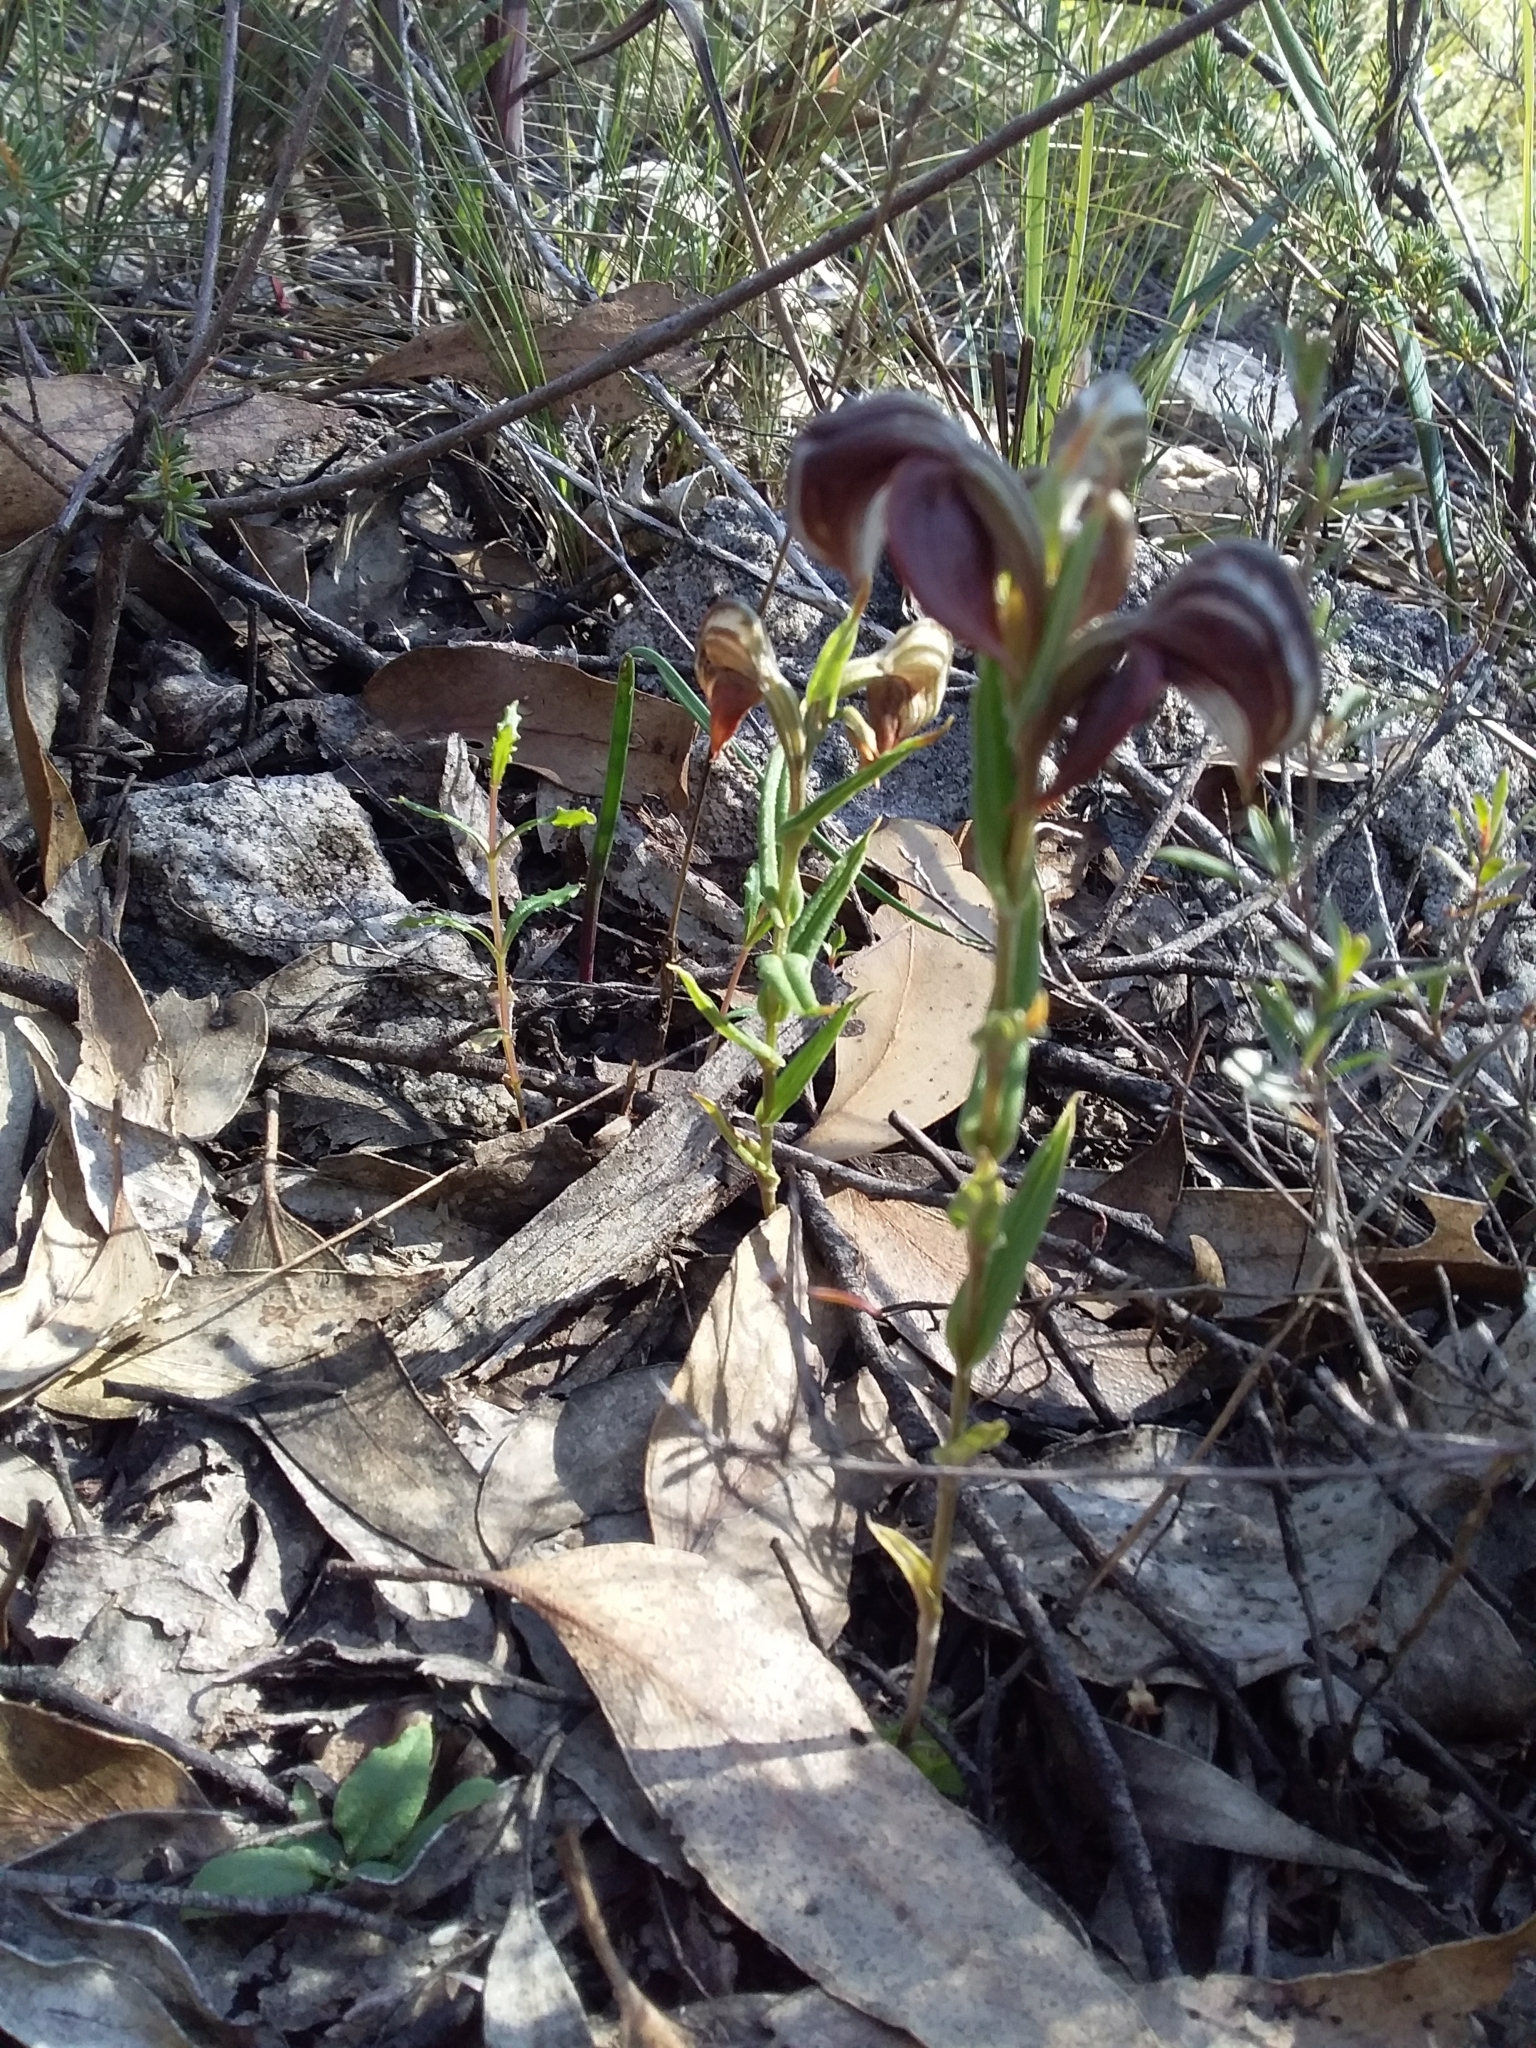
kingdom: Plantae
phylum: Tracheophyta
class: Liliopsida
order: Asparagales
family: Orchidaceae
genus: Pterostylis
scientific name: Pterostylis sanguinea
